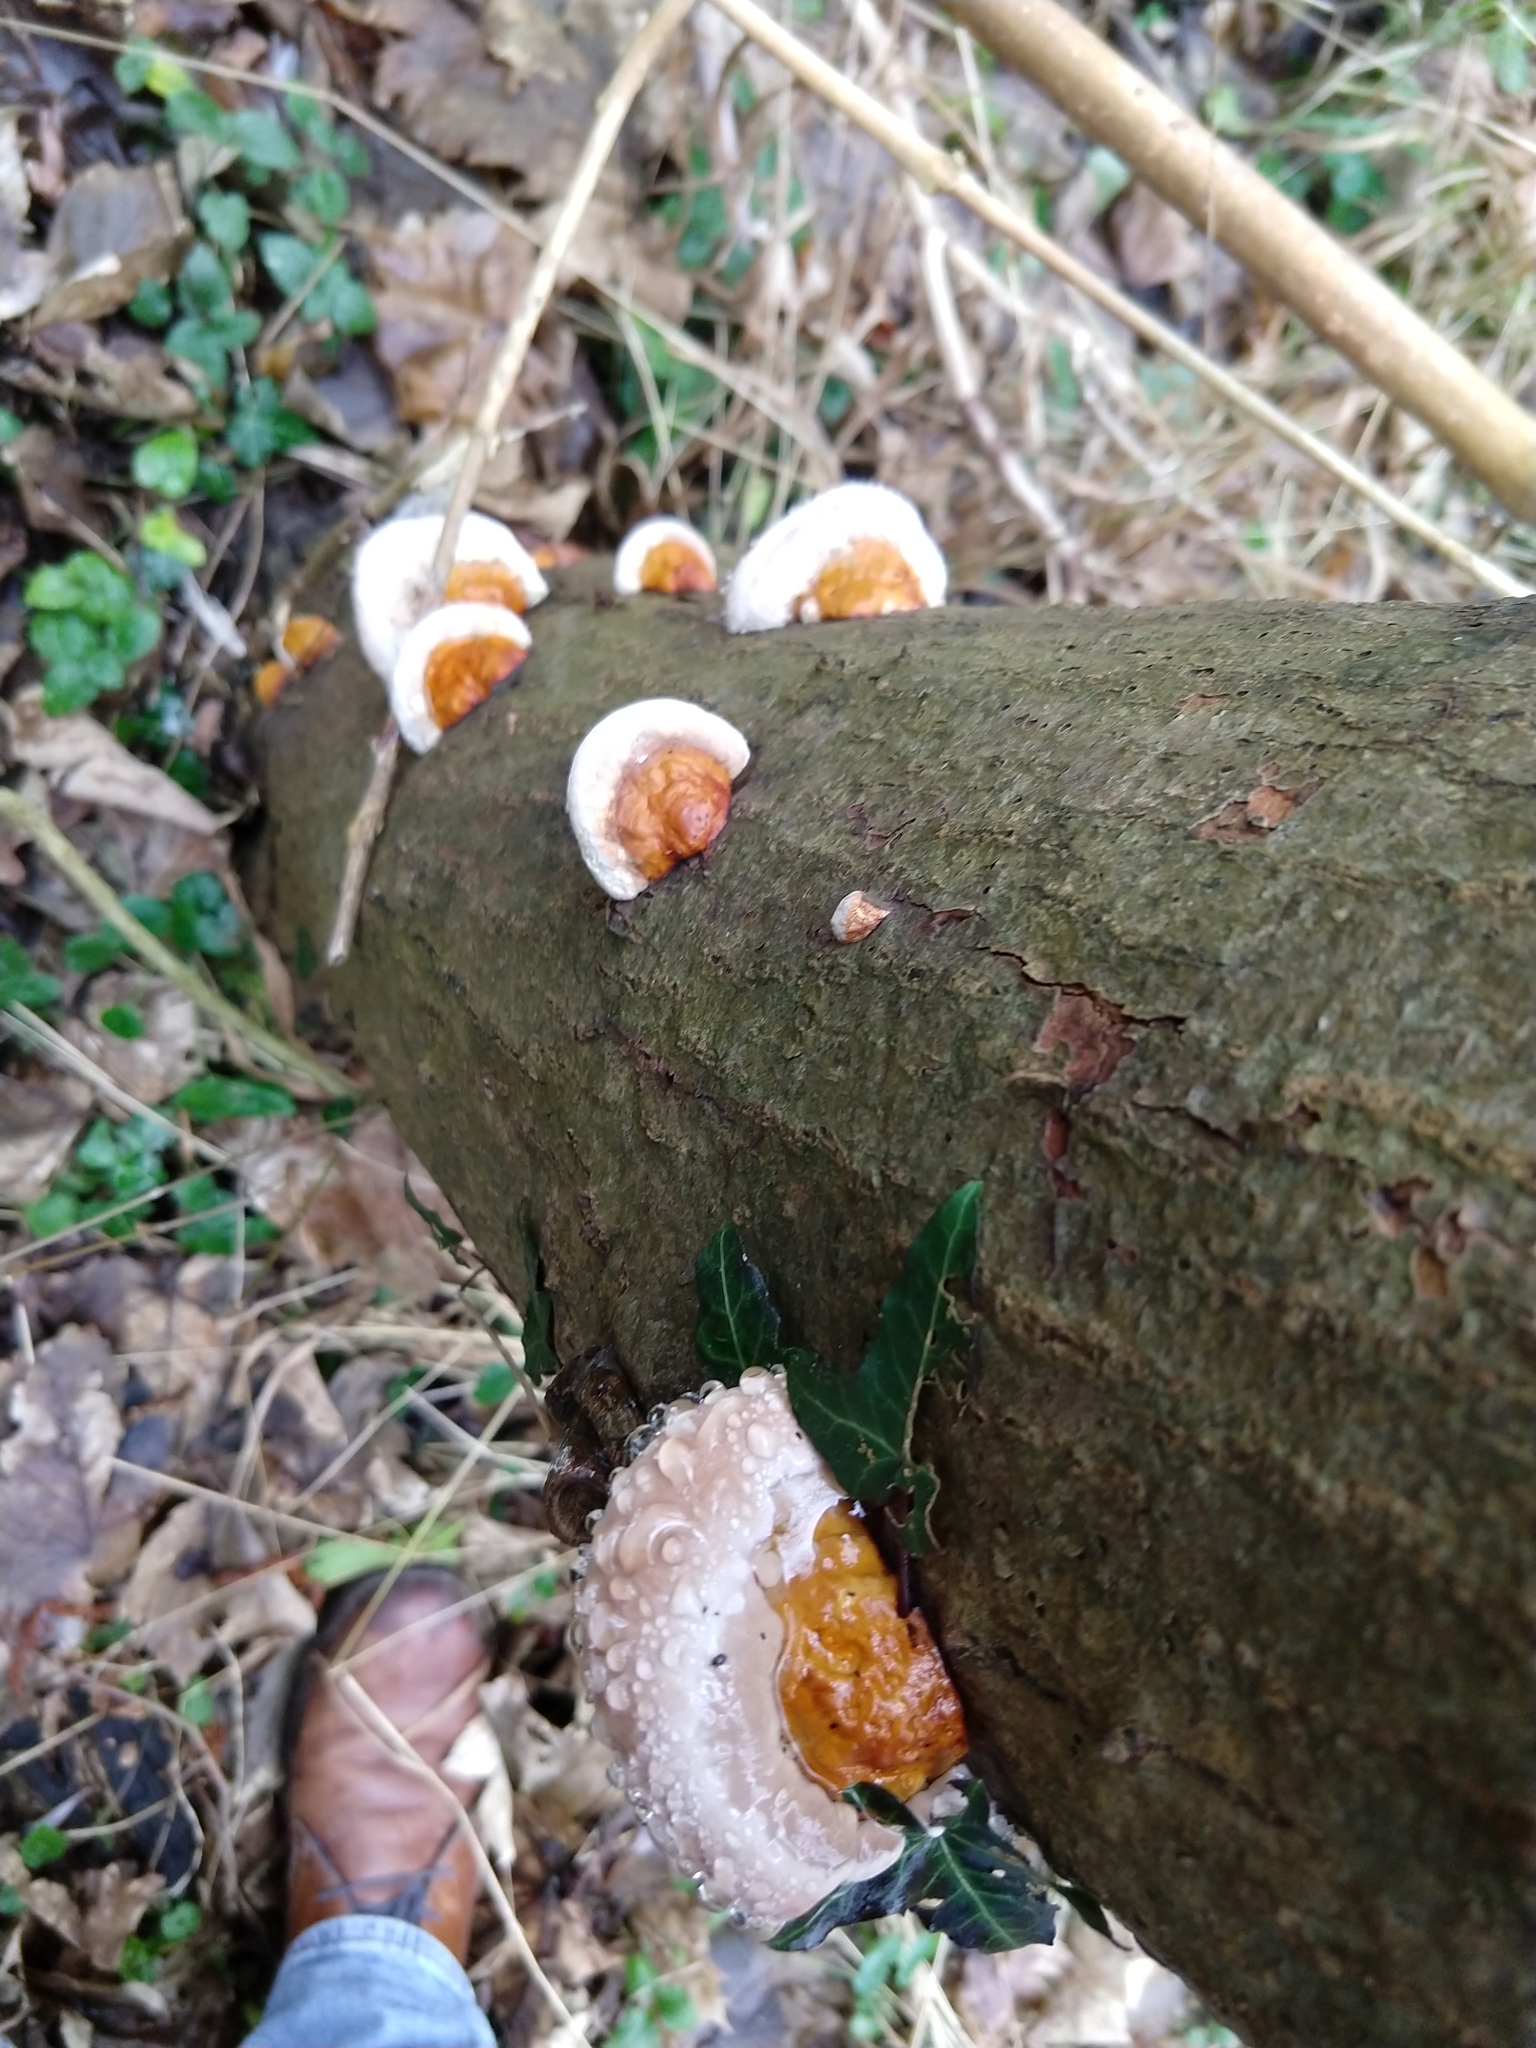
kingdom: Fungi
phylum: Basidiomycota
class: Agaricomycetes
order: Polyporales
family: Fomitopsidaceae
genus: Fomitopsis
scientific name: Fomitopsis pinicola
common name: Red-belted bracket
